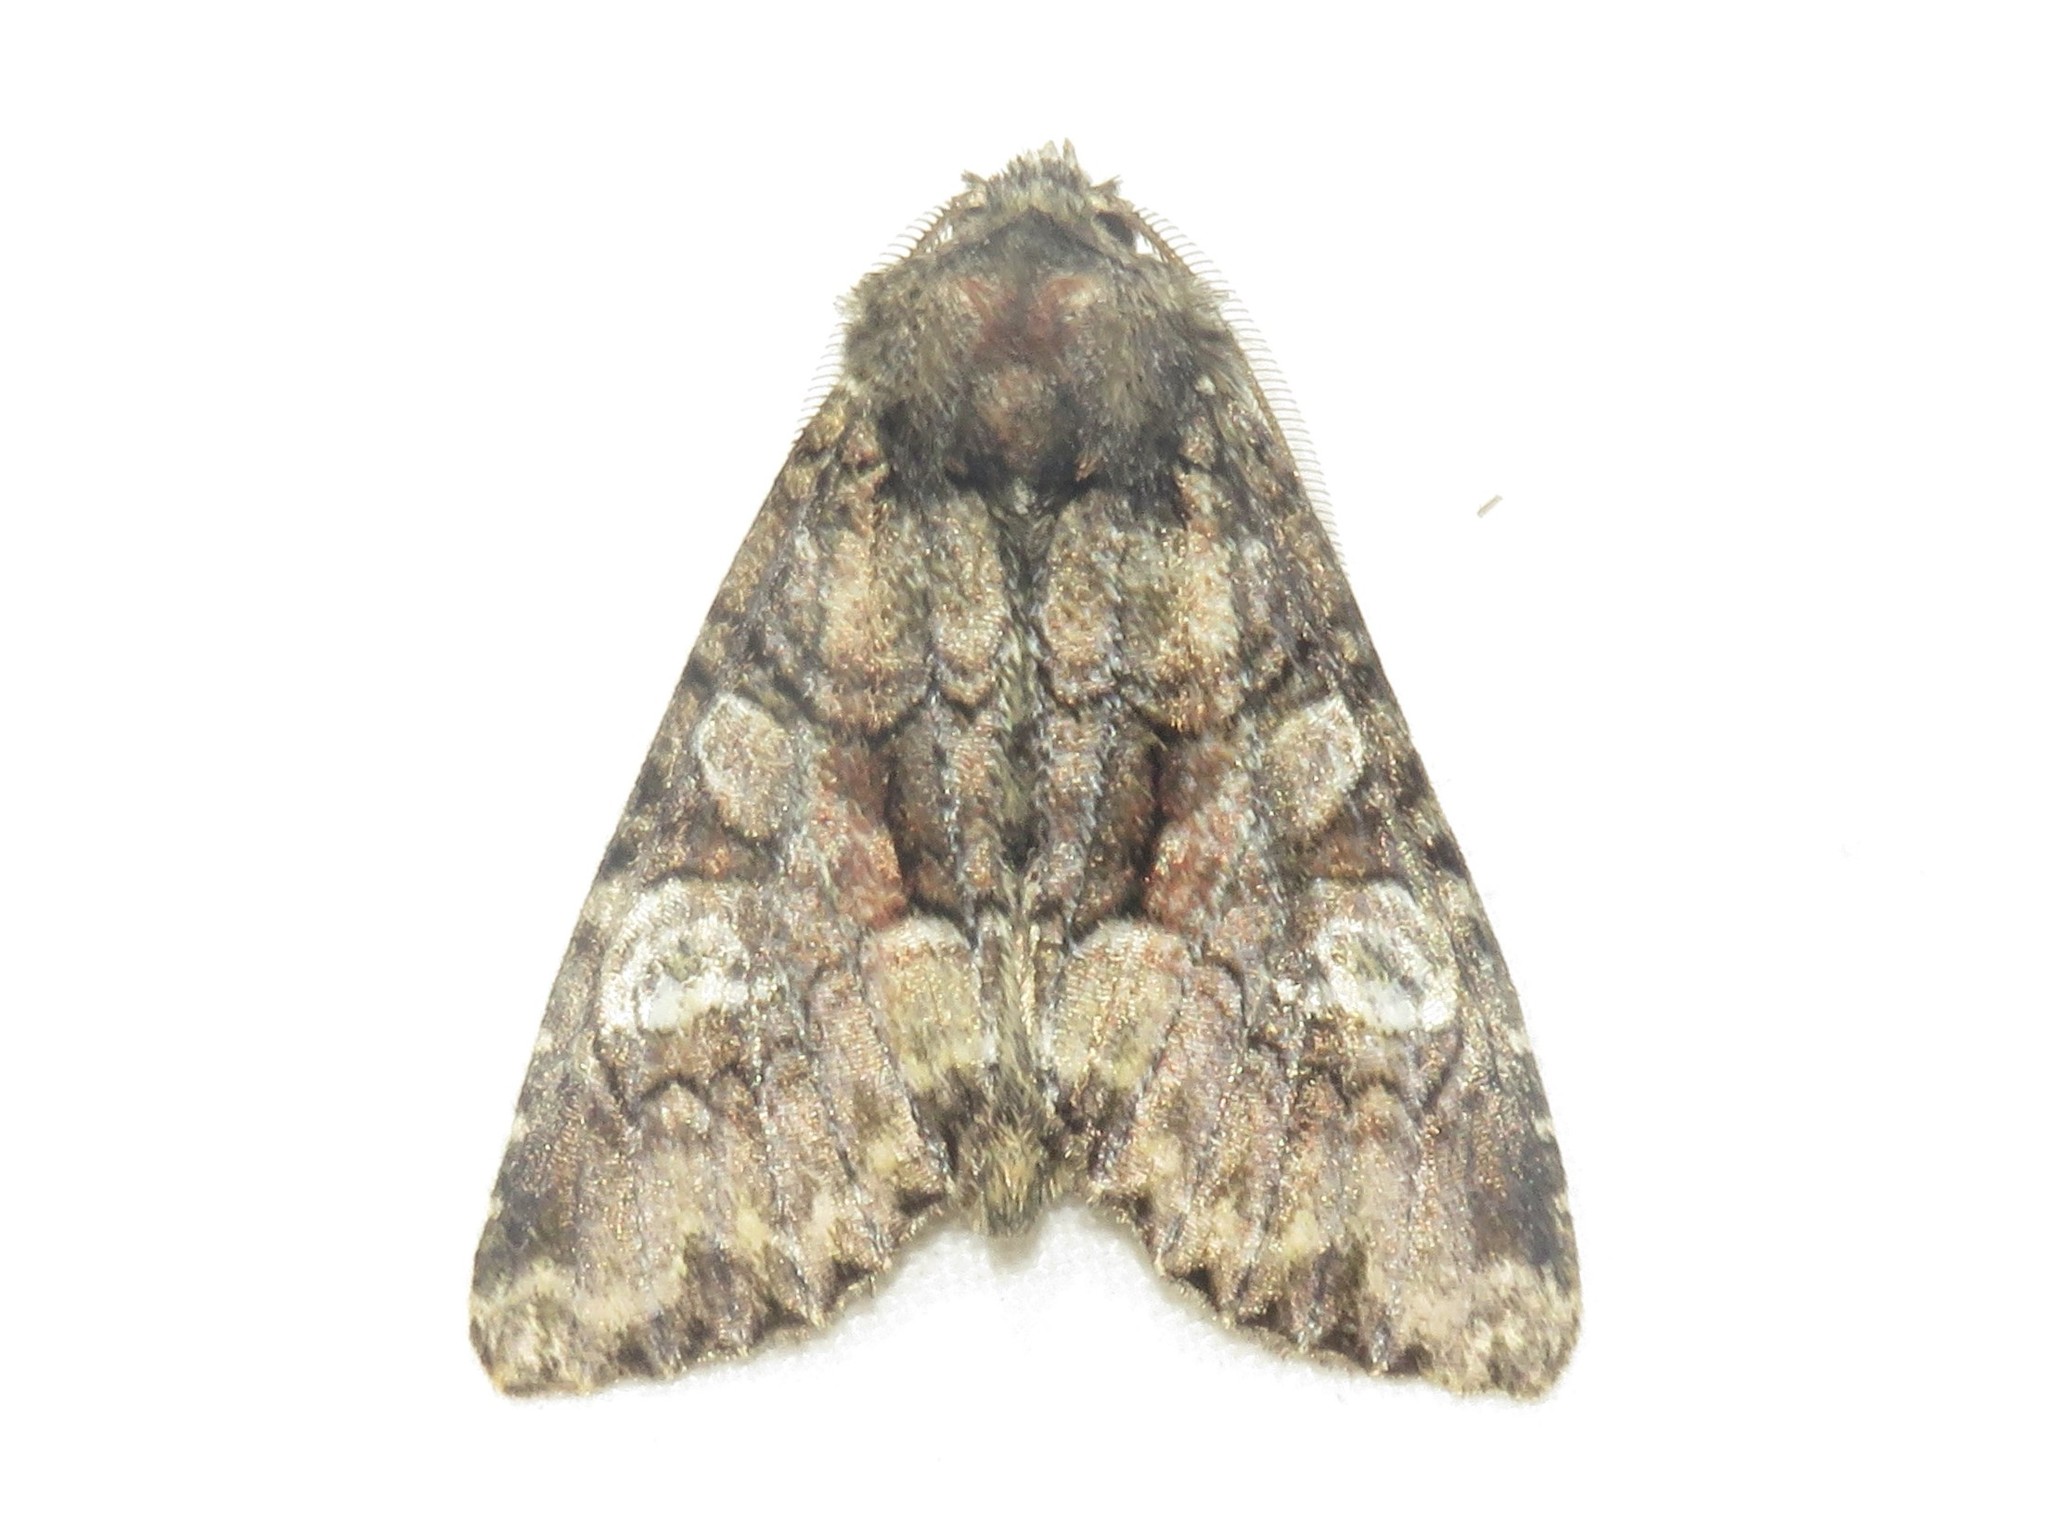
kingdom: Animalia
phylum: Arthropoda
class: Insecta
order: Lepidoptera
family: Noctuidae
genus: Fishia
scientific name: Fishia illocata
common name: Wandering brocade moth
